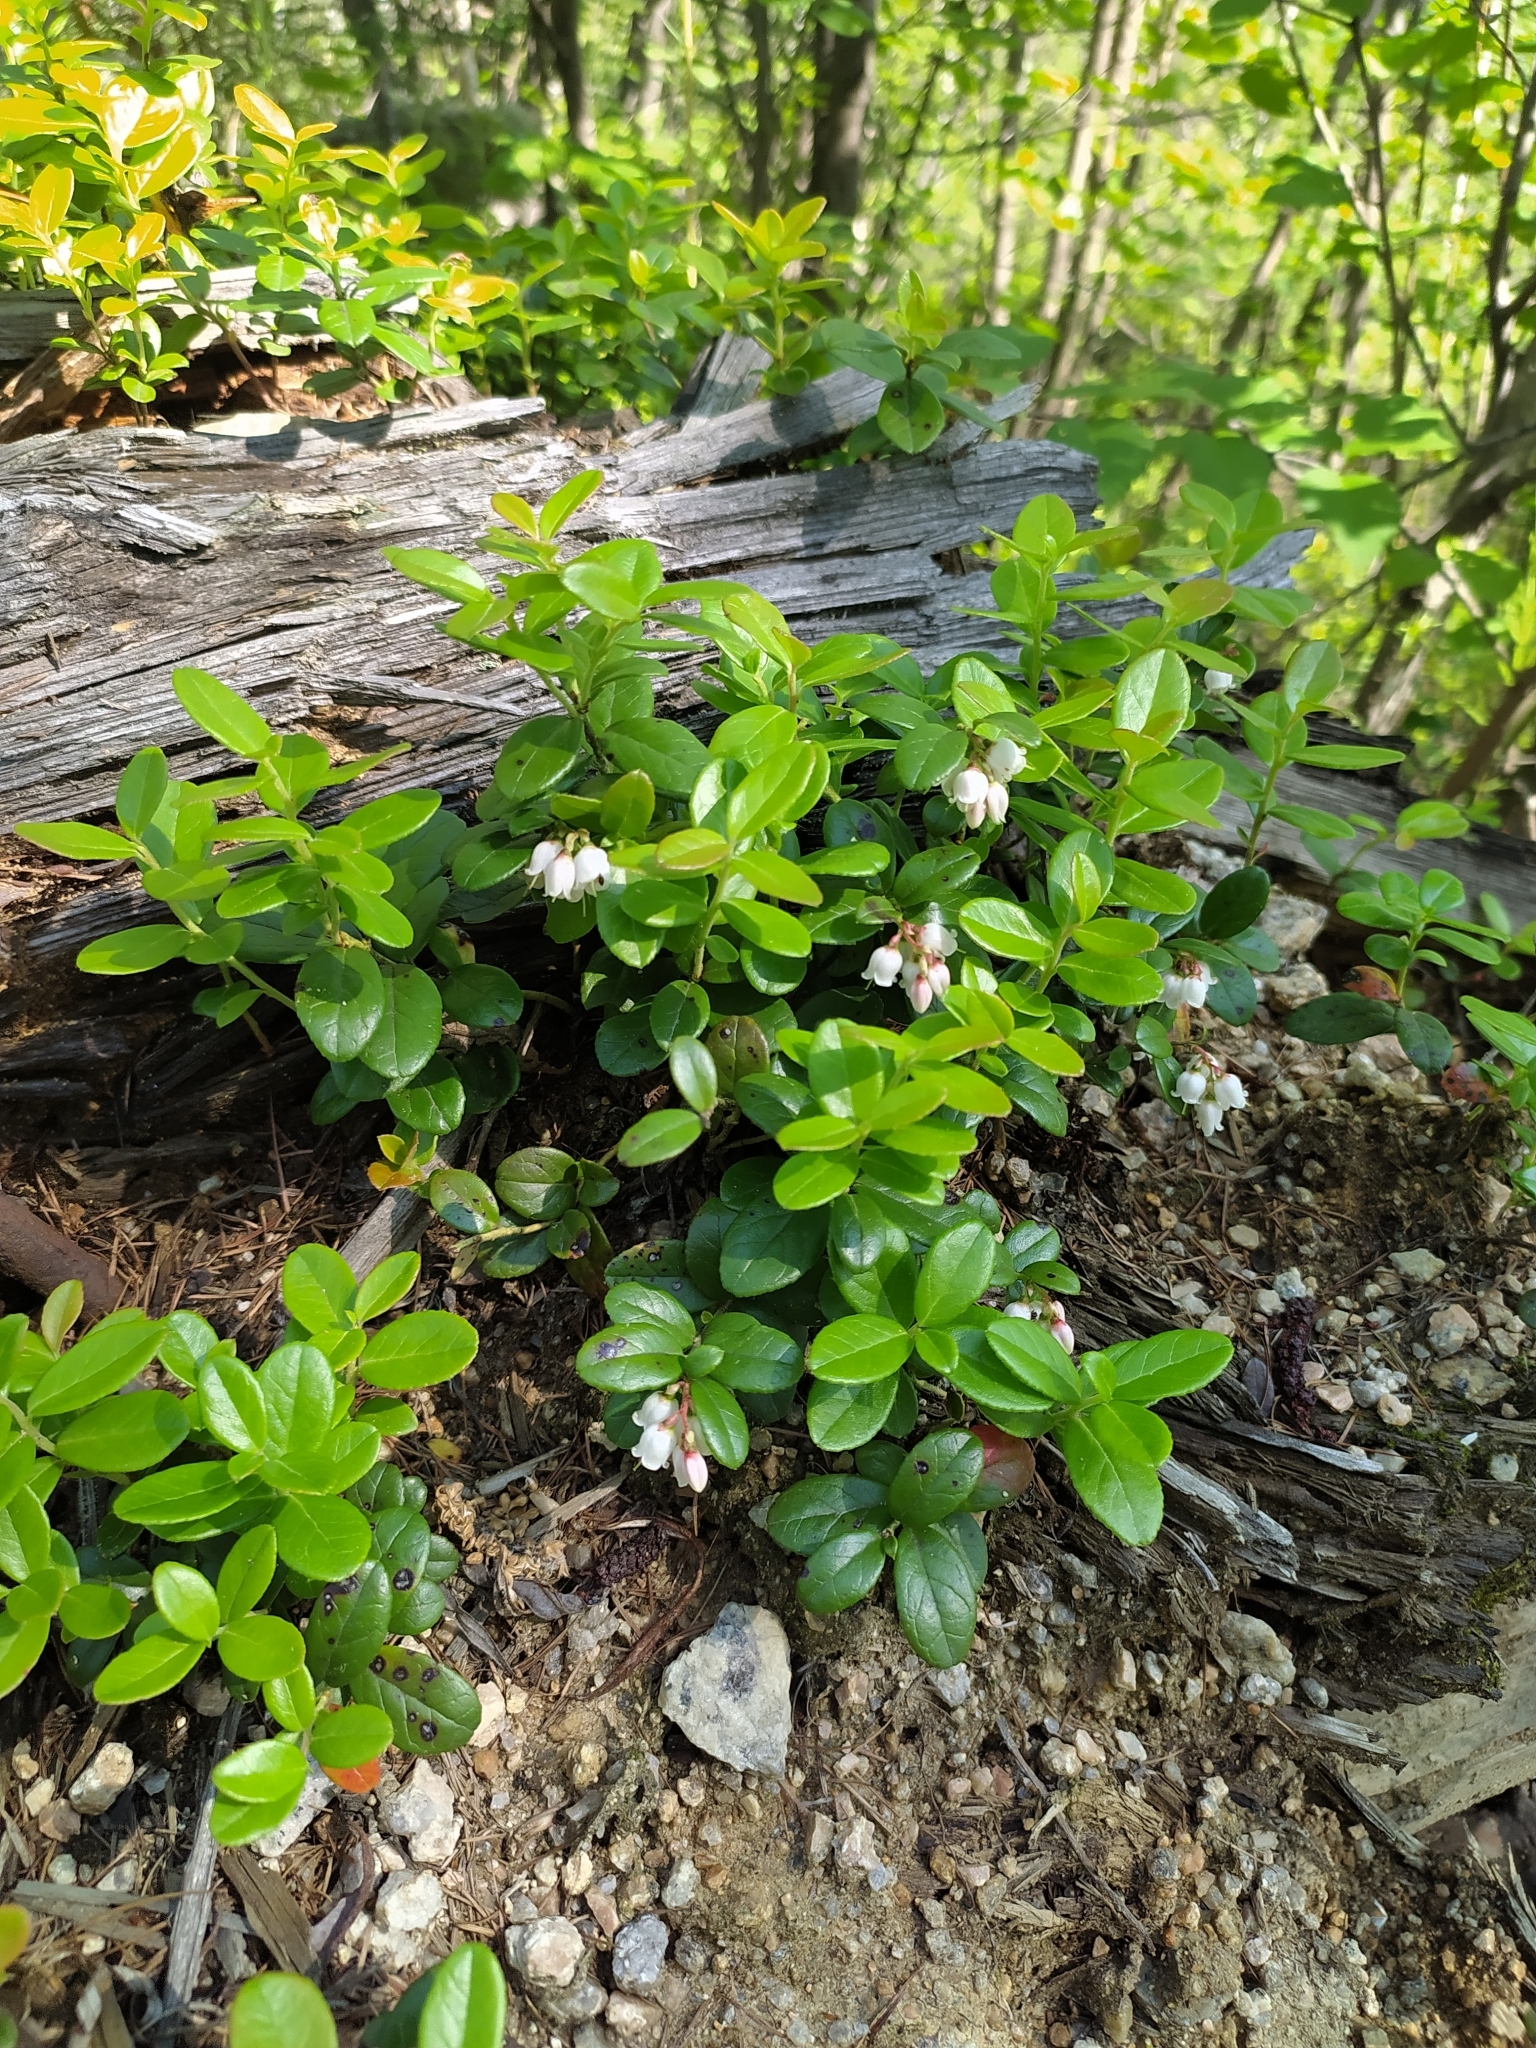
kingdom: Plantae
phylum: Tracheophyta
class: Magnoliopsida
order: Ericales
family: Ericaceae
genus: Vaccinium
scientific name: Vaccinium vitis-idaea
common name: Cowberry
